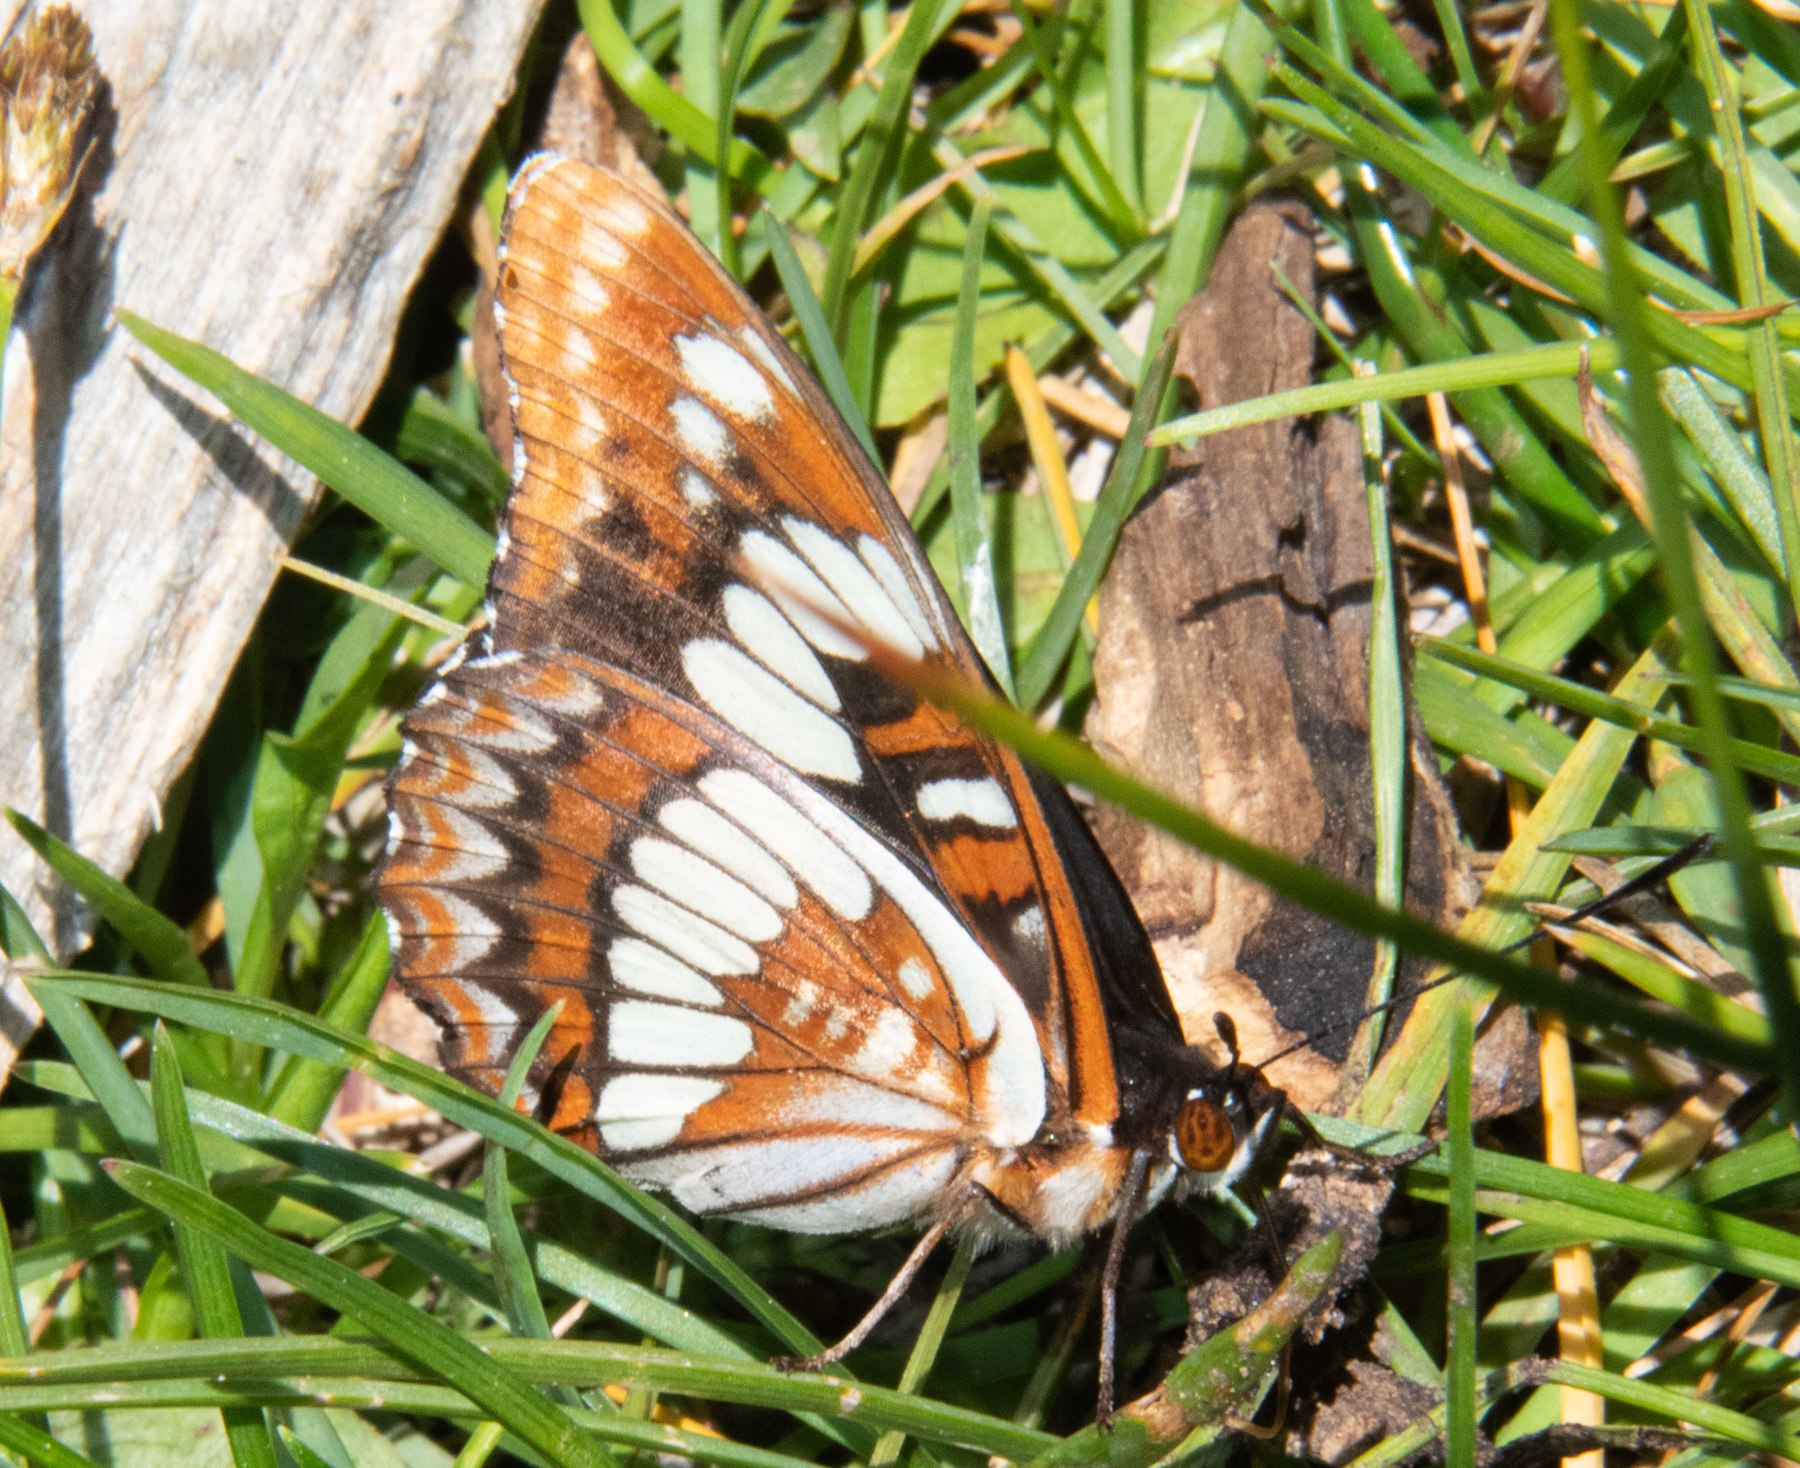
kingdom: Animalia
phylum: Arthropoda
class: Insecta
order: Lepidoptera
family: Nymphalidae
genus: Limenitis
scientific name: Limenitis lorquini
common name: Lorquin's admiral
